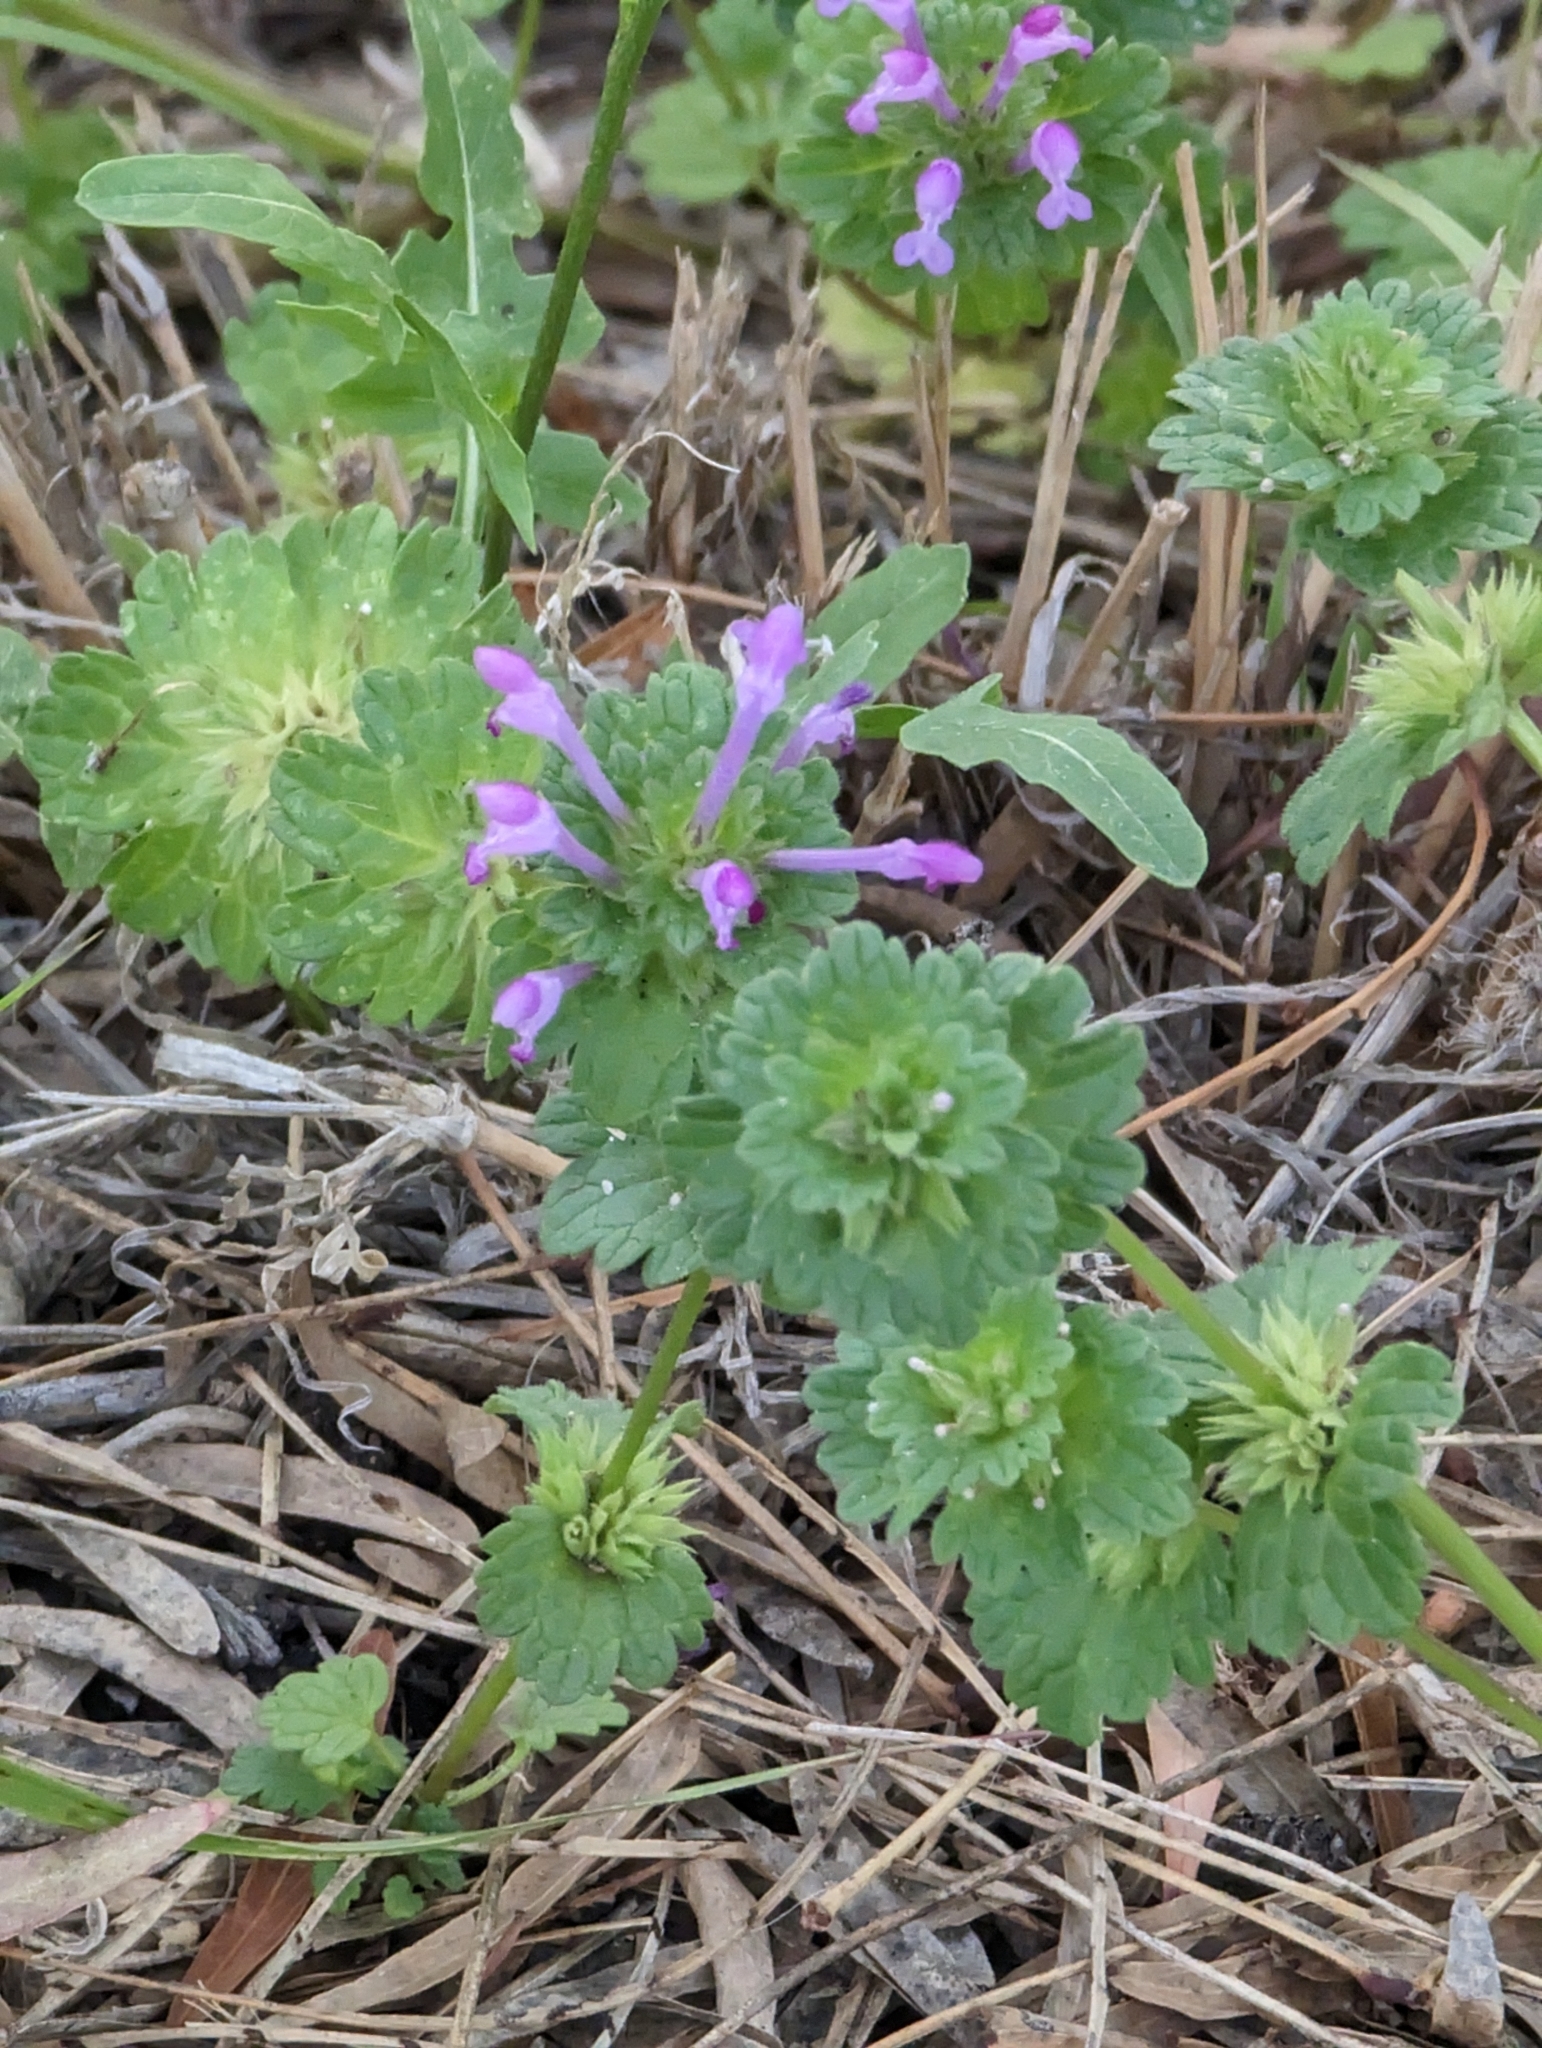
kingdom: Plantae
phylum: Tracheophyta
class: Magnoliopsida
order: Lamiales
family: Lamiaceae
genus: Lamium
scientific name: Lamium amplexicaule
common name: Henbit dead-nettle
